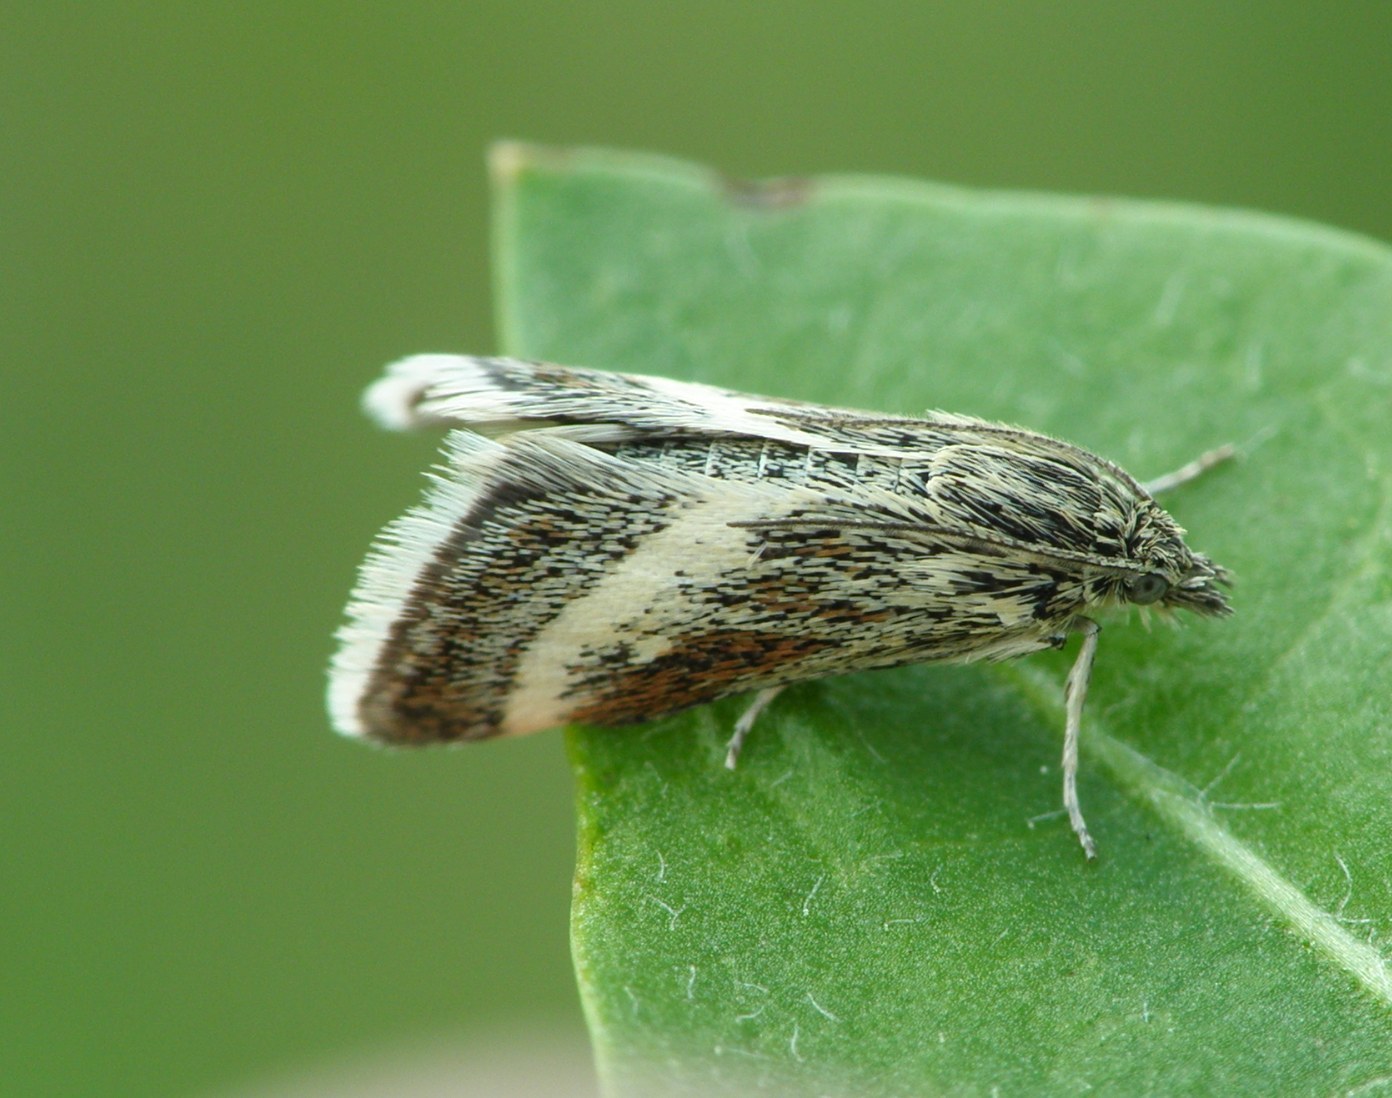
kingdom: Animalia
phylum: Arthropoda
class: Insecta
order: Lepidoptera
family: Crambidae
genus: Atralata
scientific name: Atralata albofascialis
